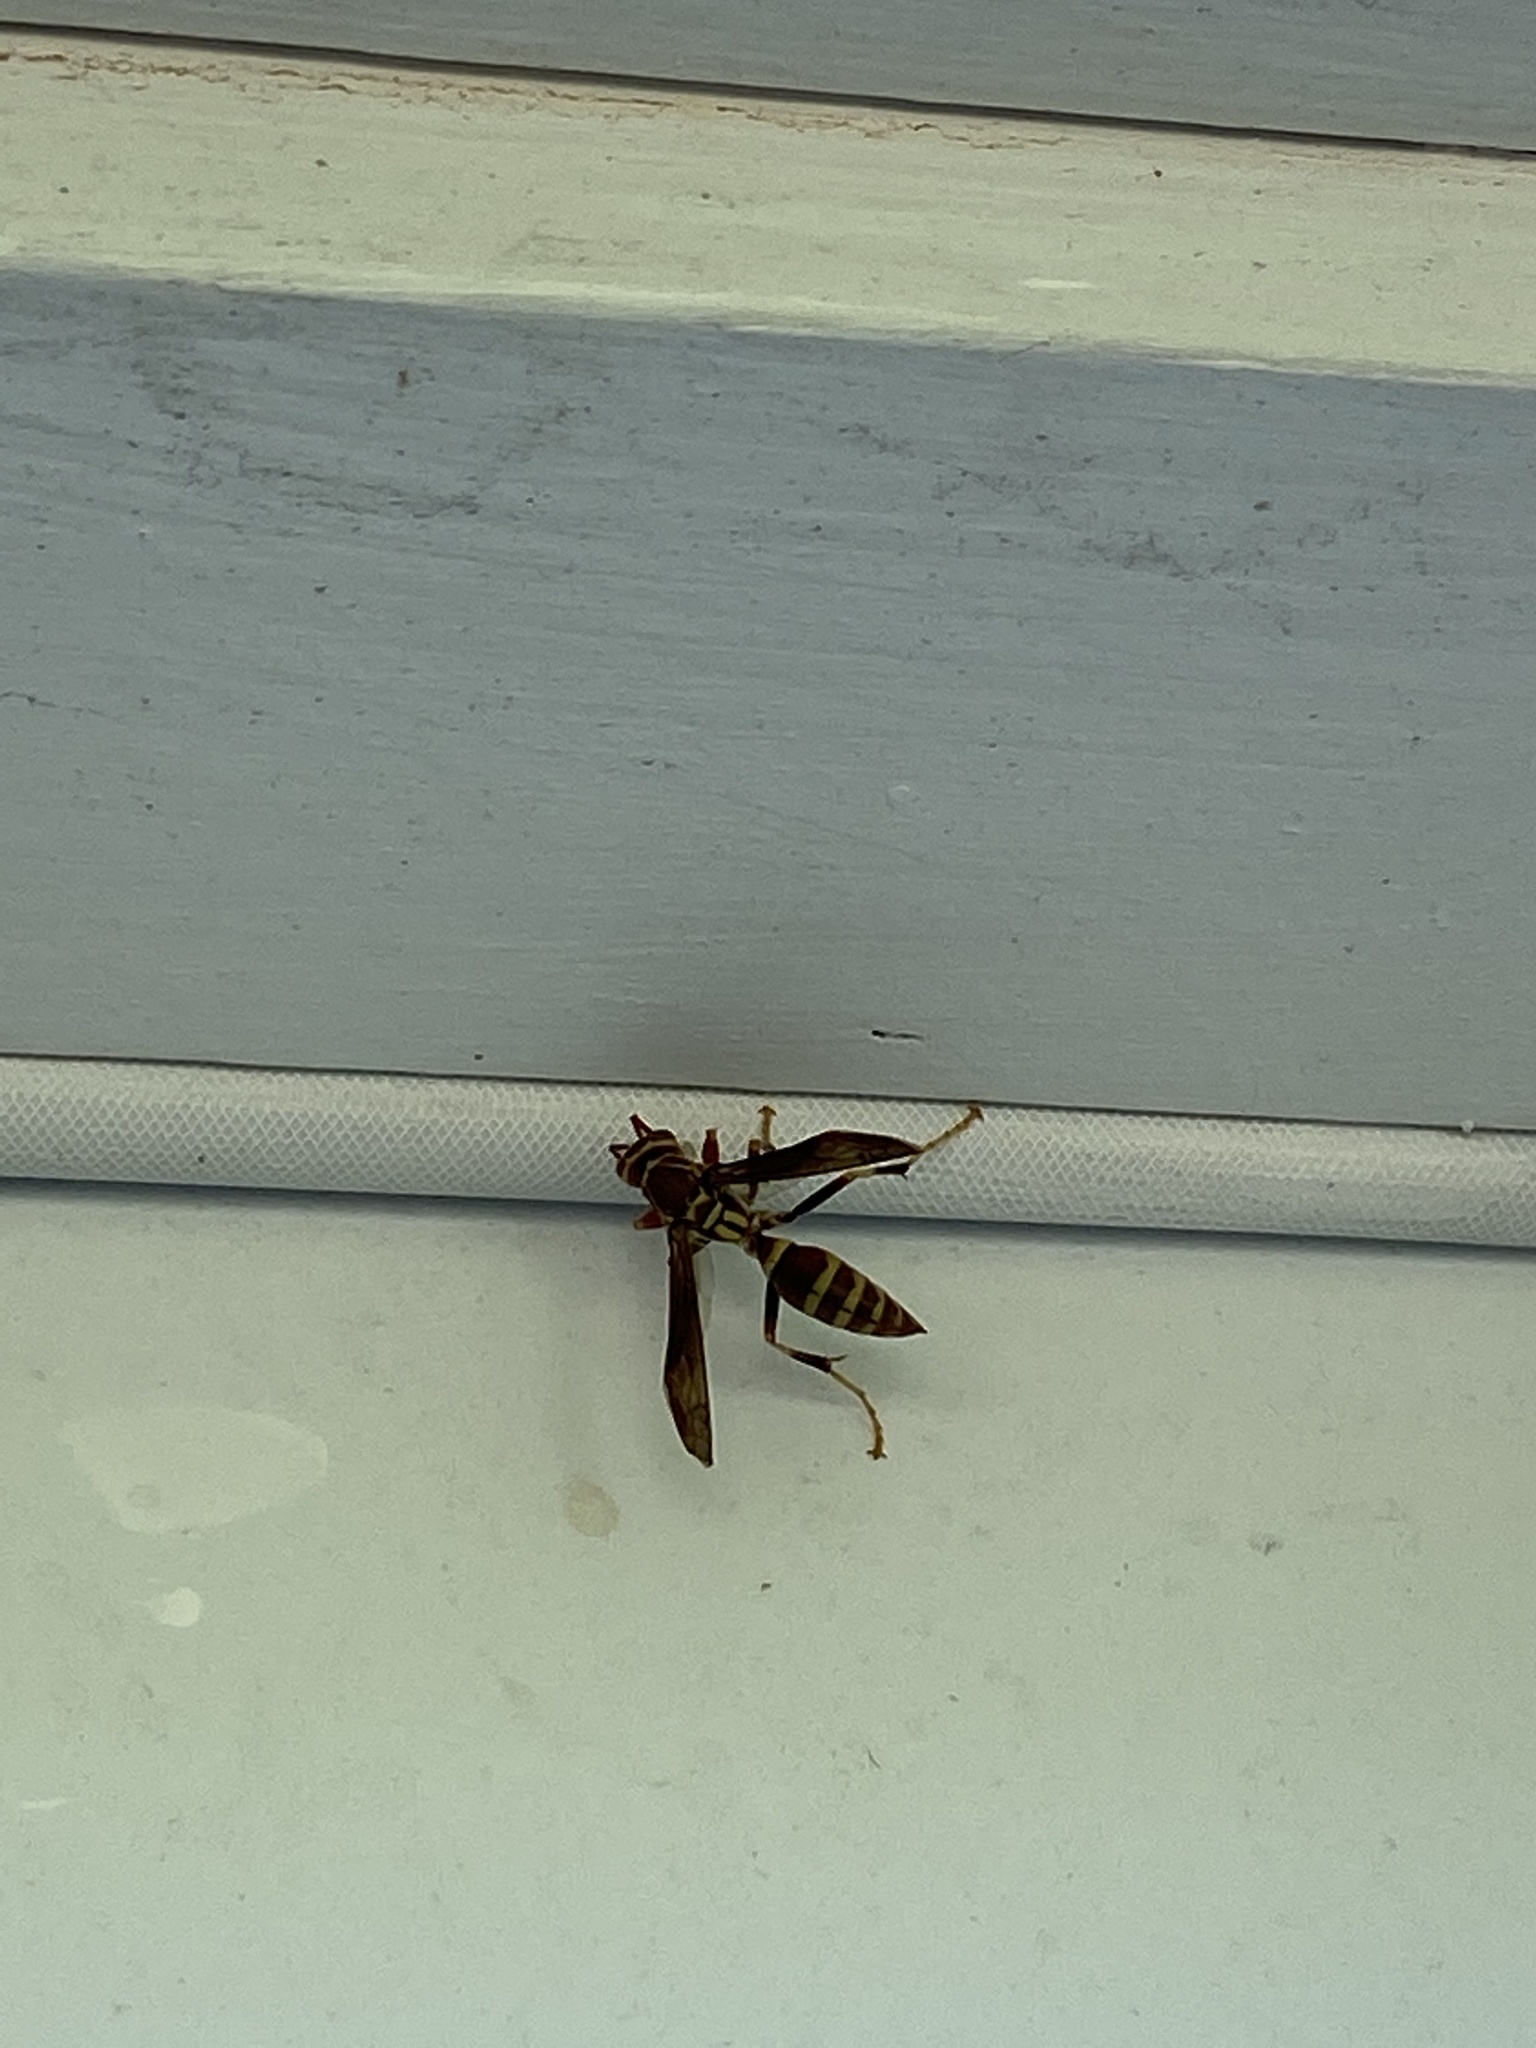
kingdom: Animalia
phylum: Arthropoda
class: Insecta
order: Hymenoptera
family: Eumenidae
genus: Polistes
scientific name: Polistes exclamans
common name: Paper wasp
